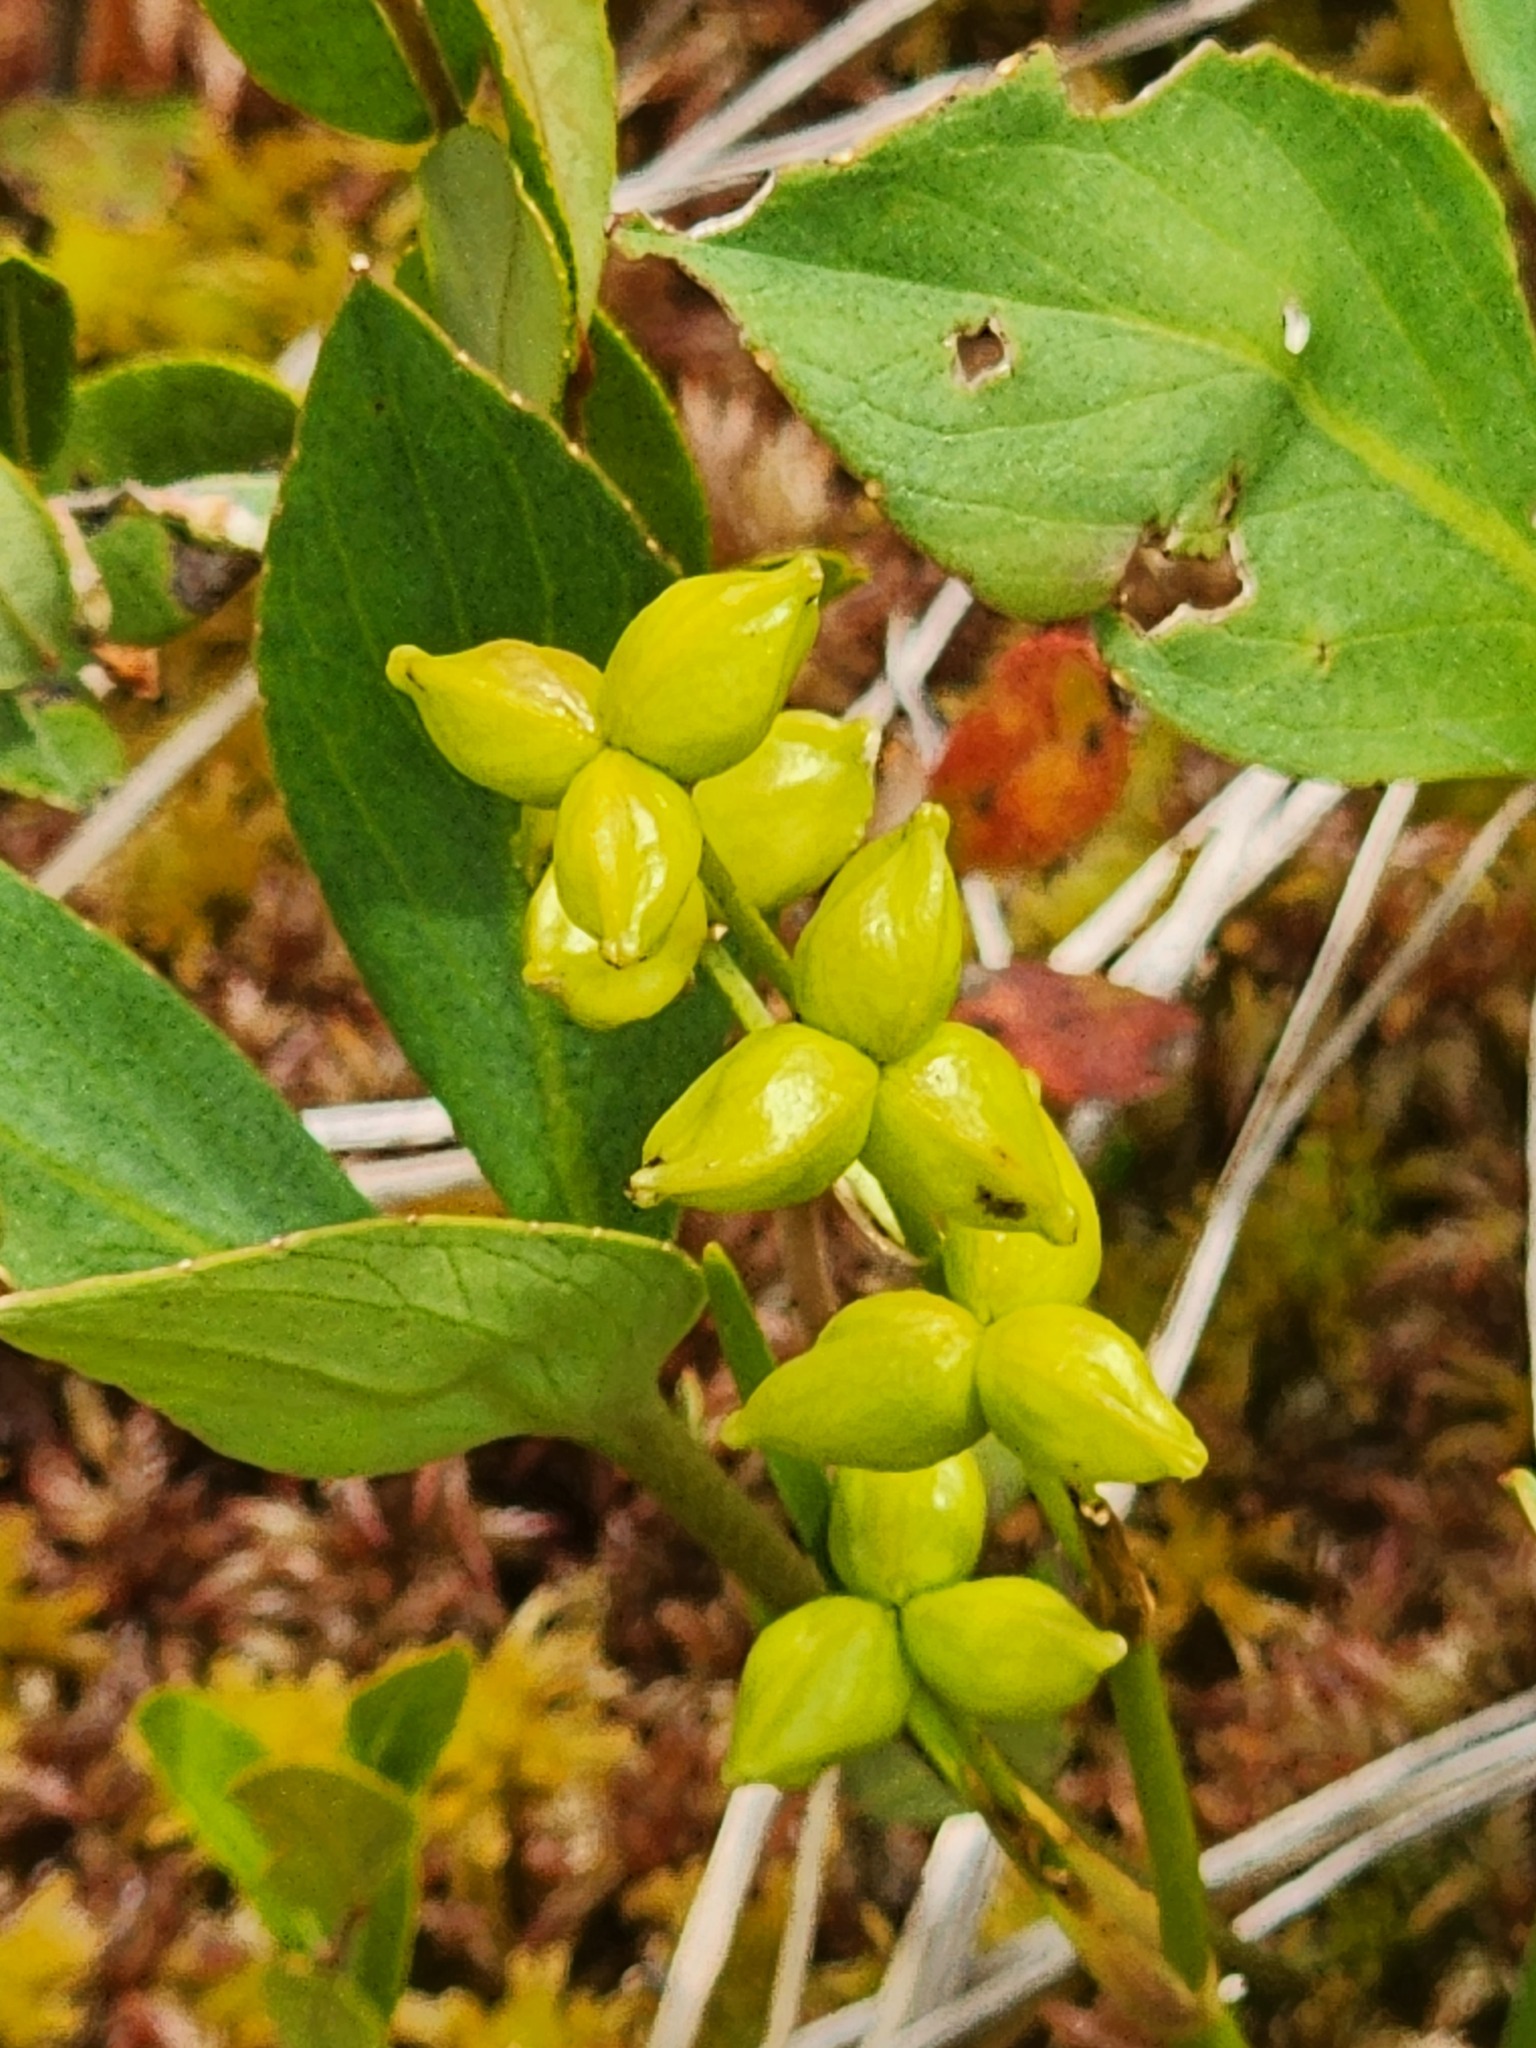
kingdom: Plantae
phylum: Tracheophyta
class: Liliopsida
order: Alismatales
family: Scheuchzeriaceae
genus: Scheuchzeria
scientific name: Scheuchzeria palustris
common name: Rannoch-rush
